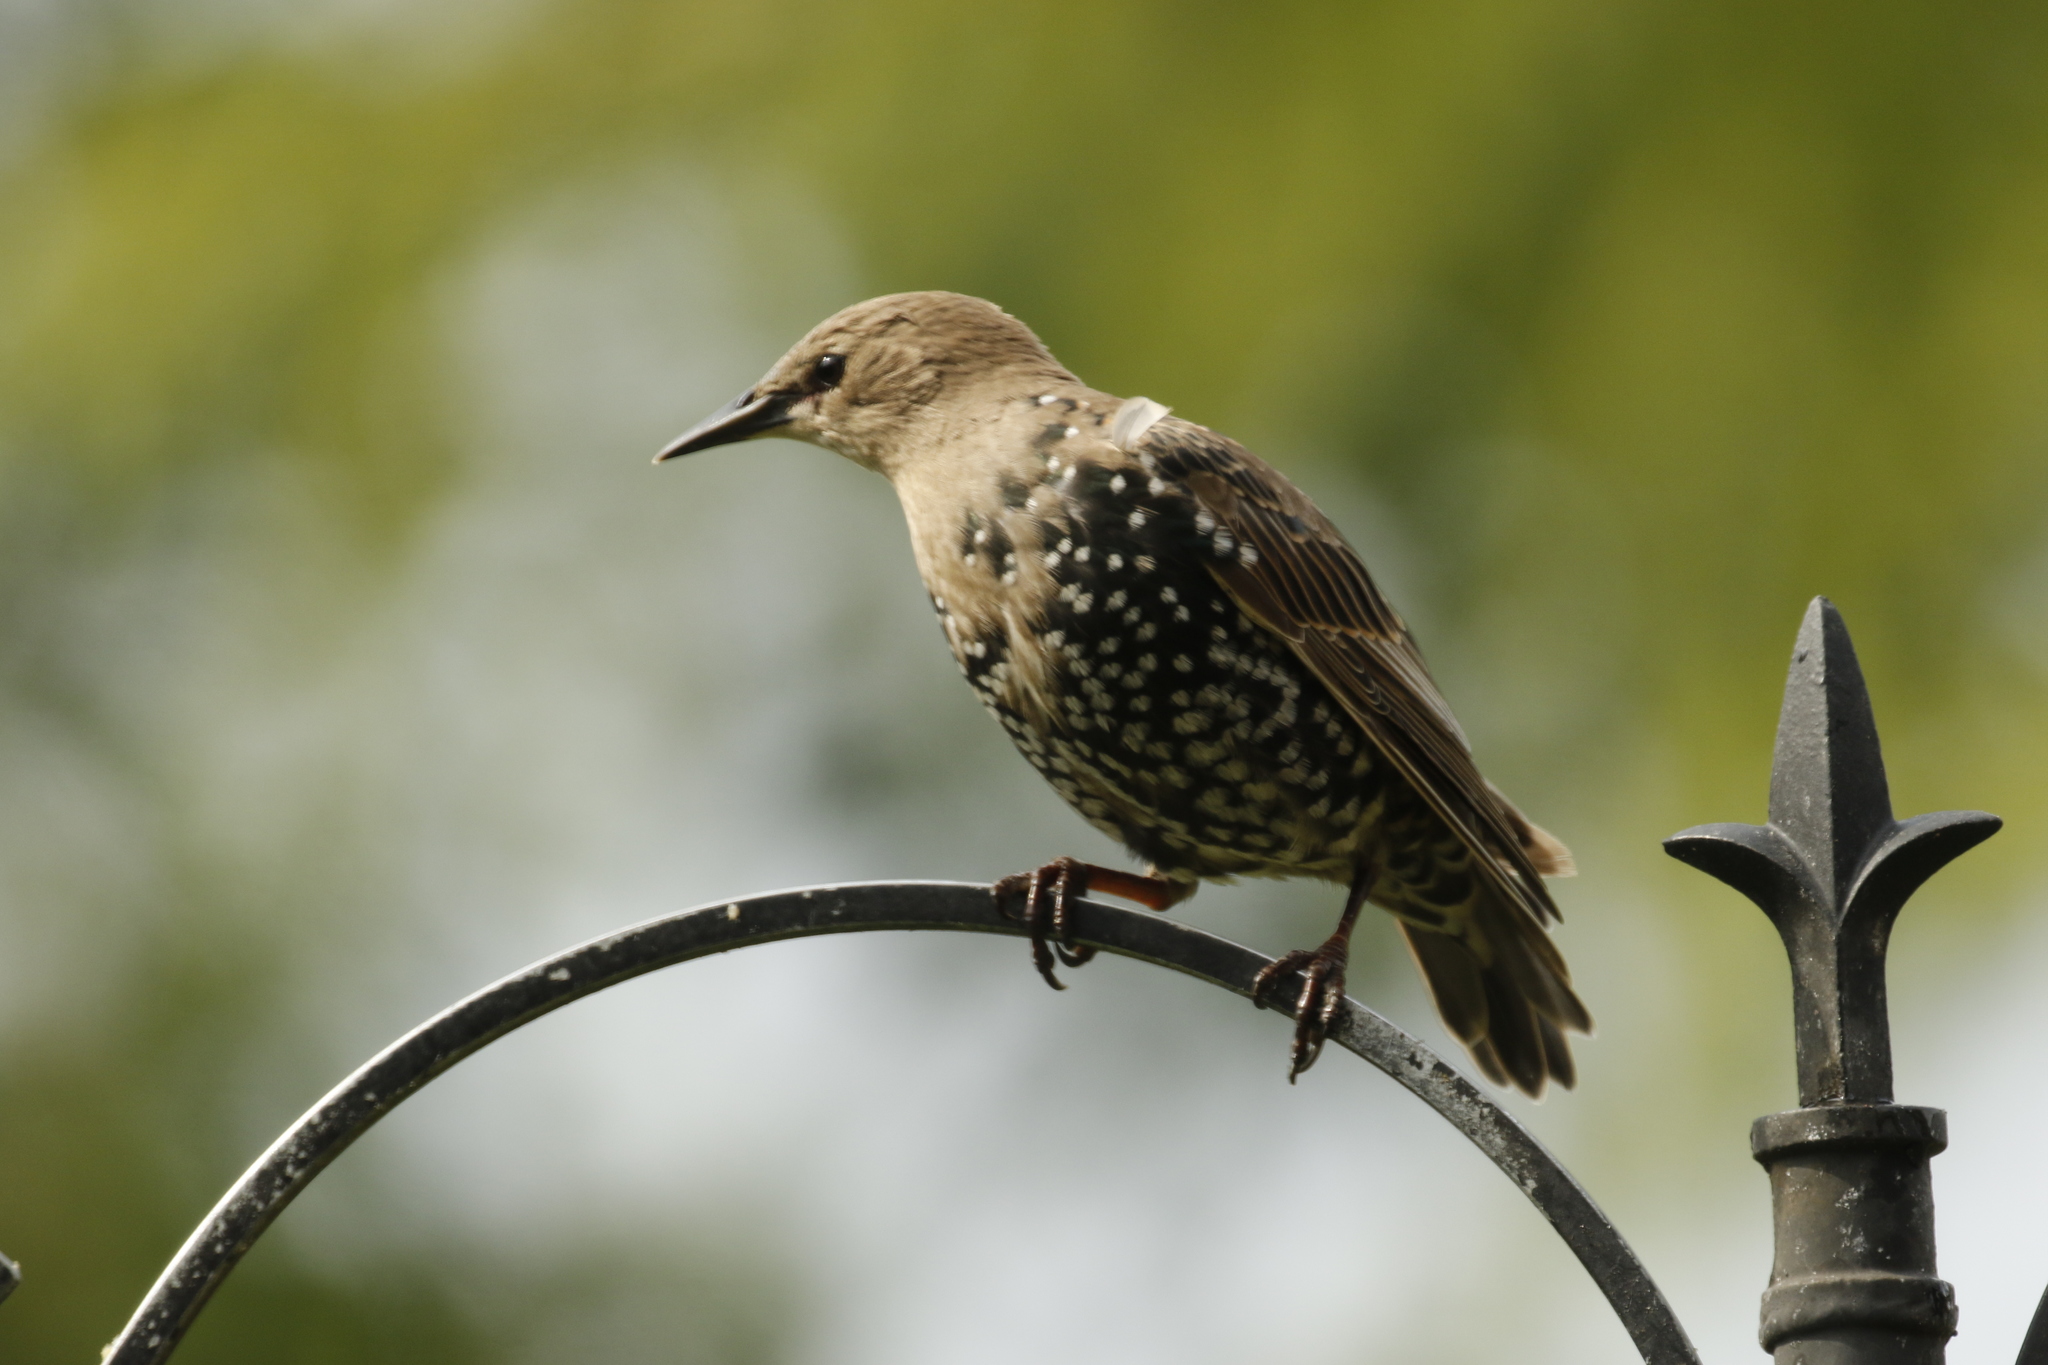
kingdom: Animalia
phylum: Chordata
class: Aves
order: Passeriformes
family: Sturnidae
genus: Sturnus
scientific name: Sturnus vulgaris
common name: Common starling
